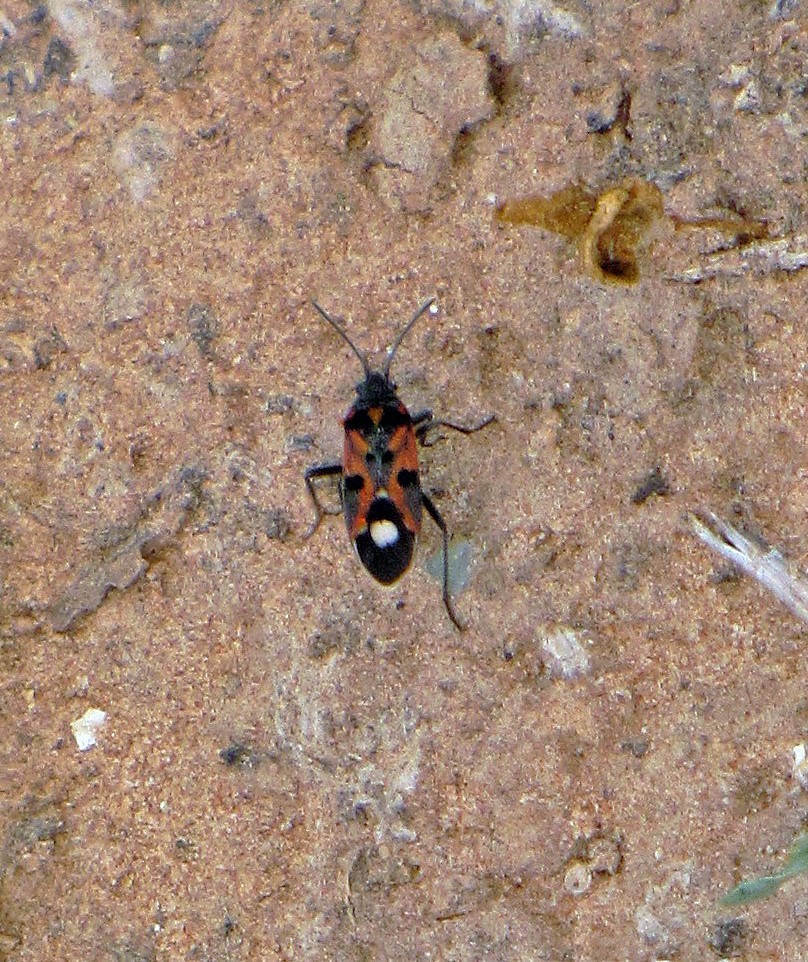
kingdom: Animalia
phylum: Arthropoda
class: Insecta
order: Hemiptera
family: Lygaeidae
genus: Lygaeus
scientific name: Lygaeus alboornatus
